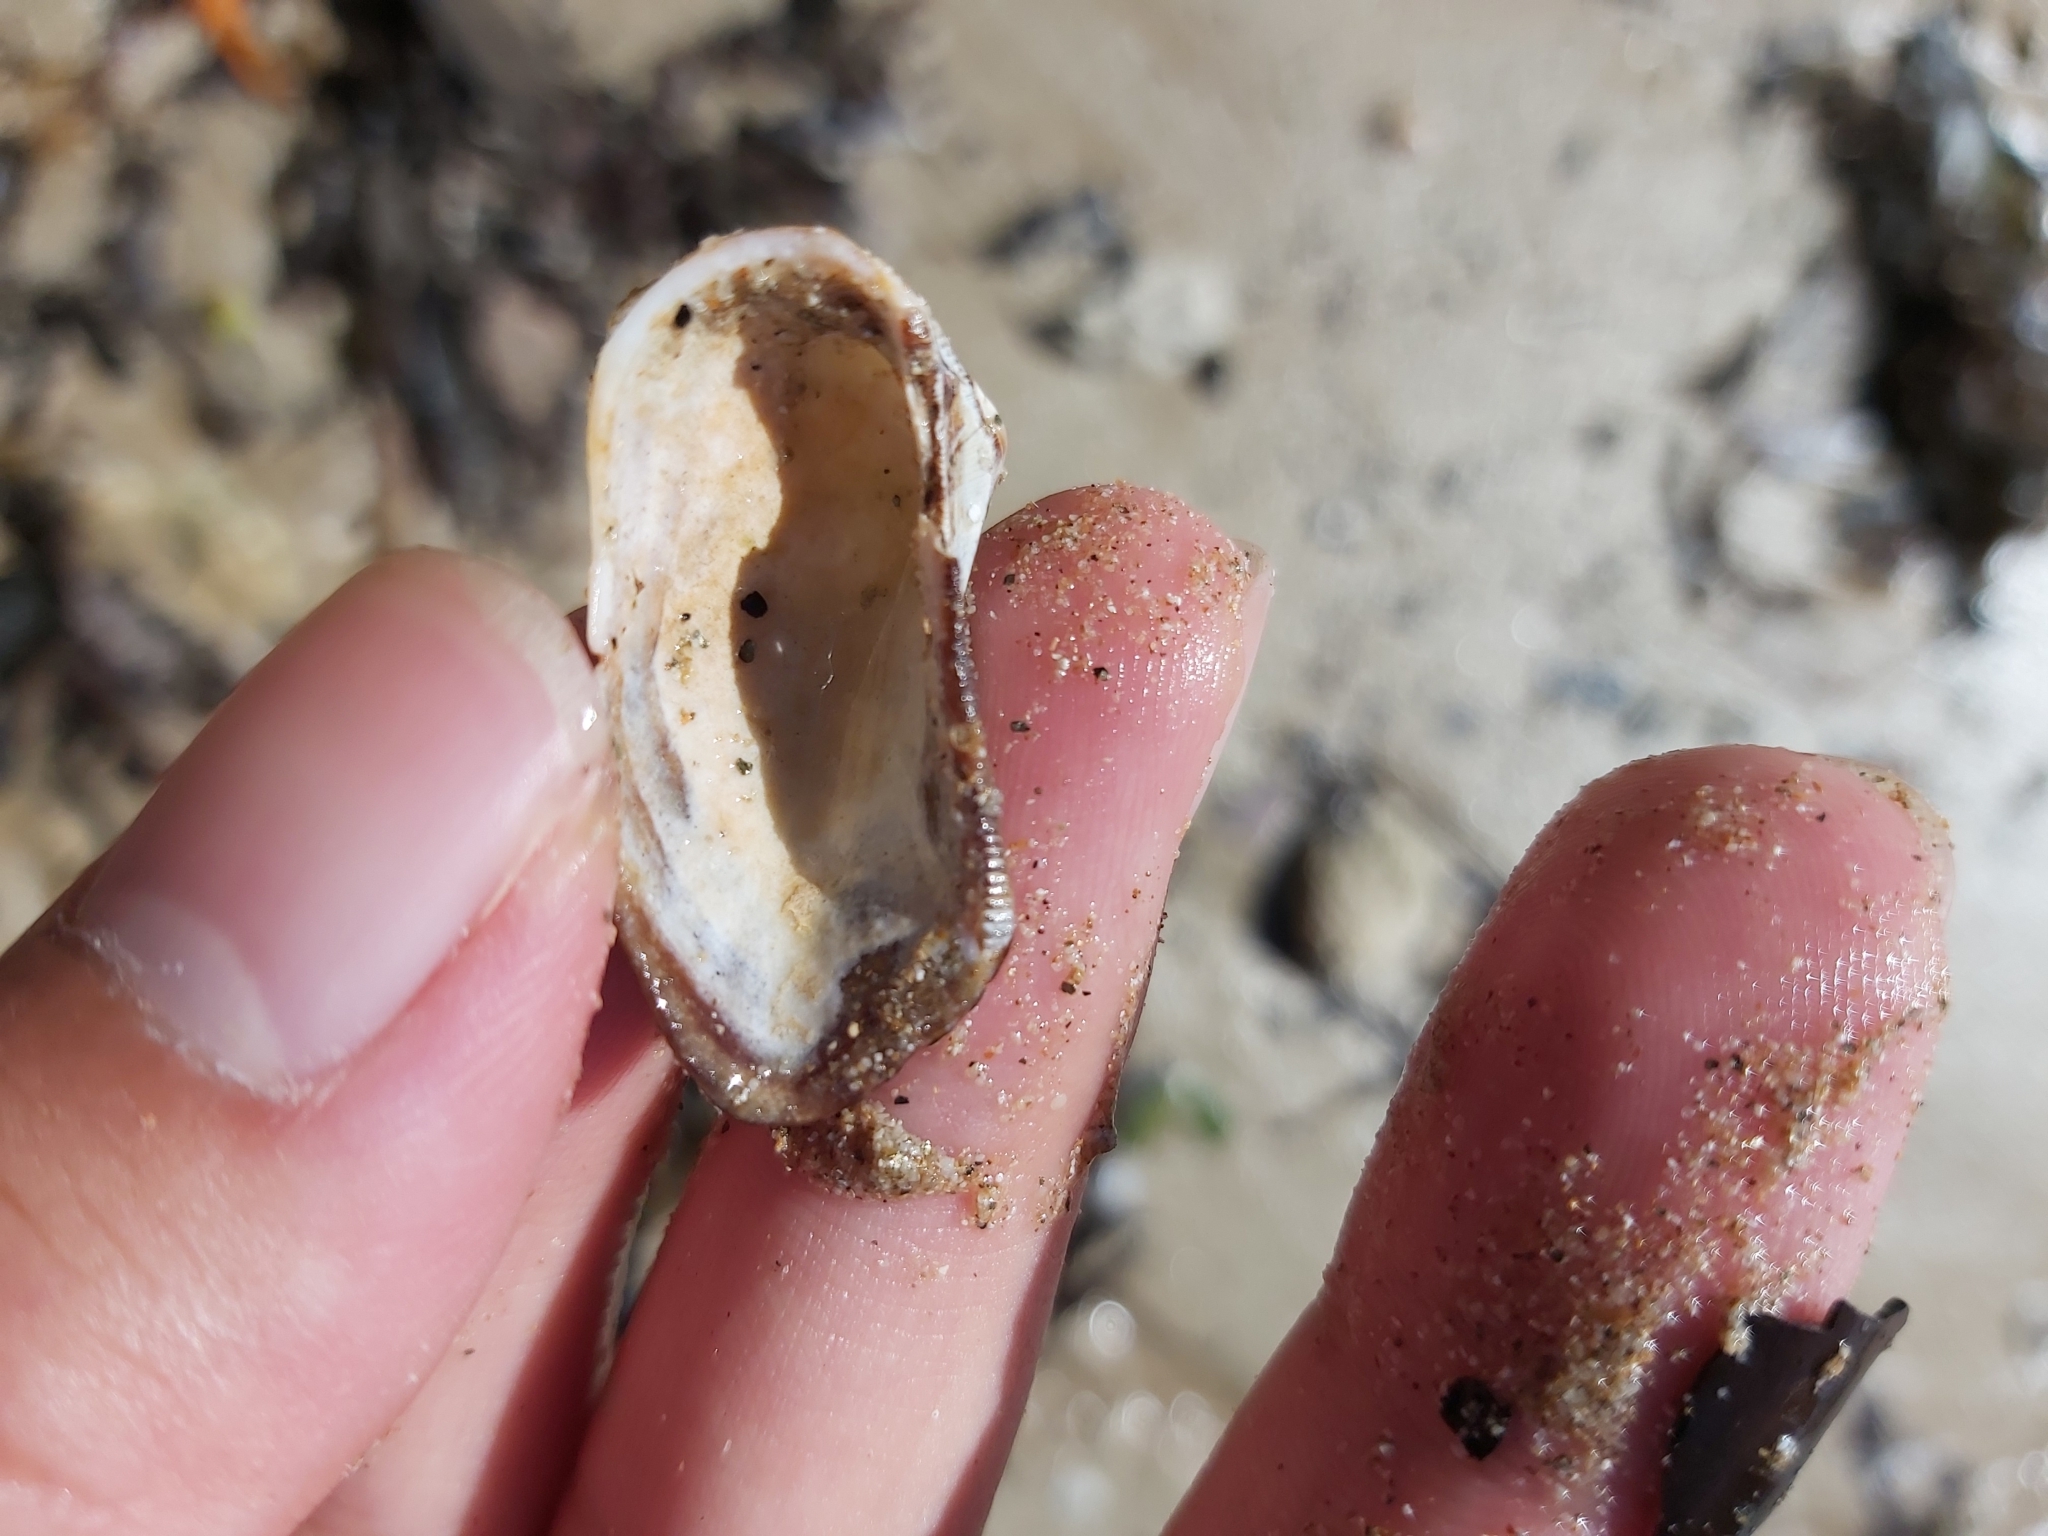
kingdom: Animalia
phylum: Mollusca
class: Bivalvia
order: Arcida
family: Arcidae
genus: Lamarcka
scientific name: Lamarcka avellana
